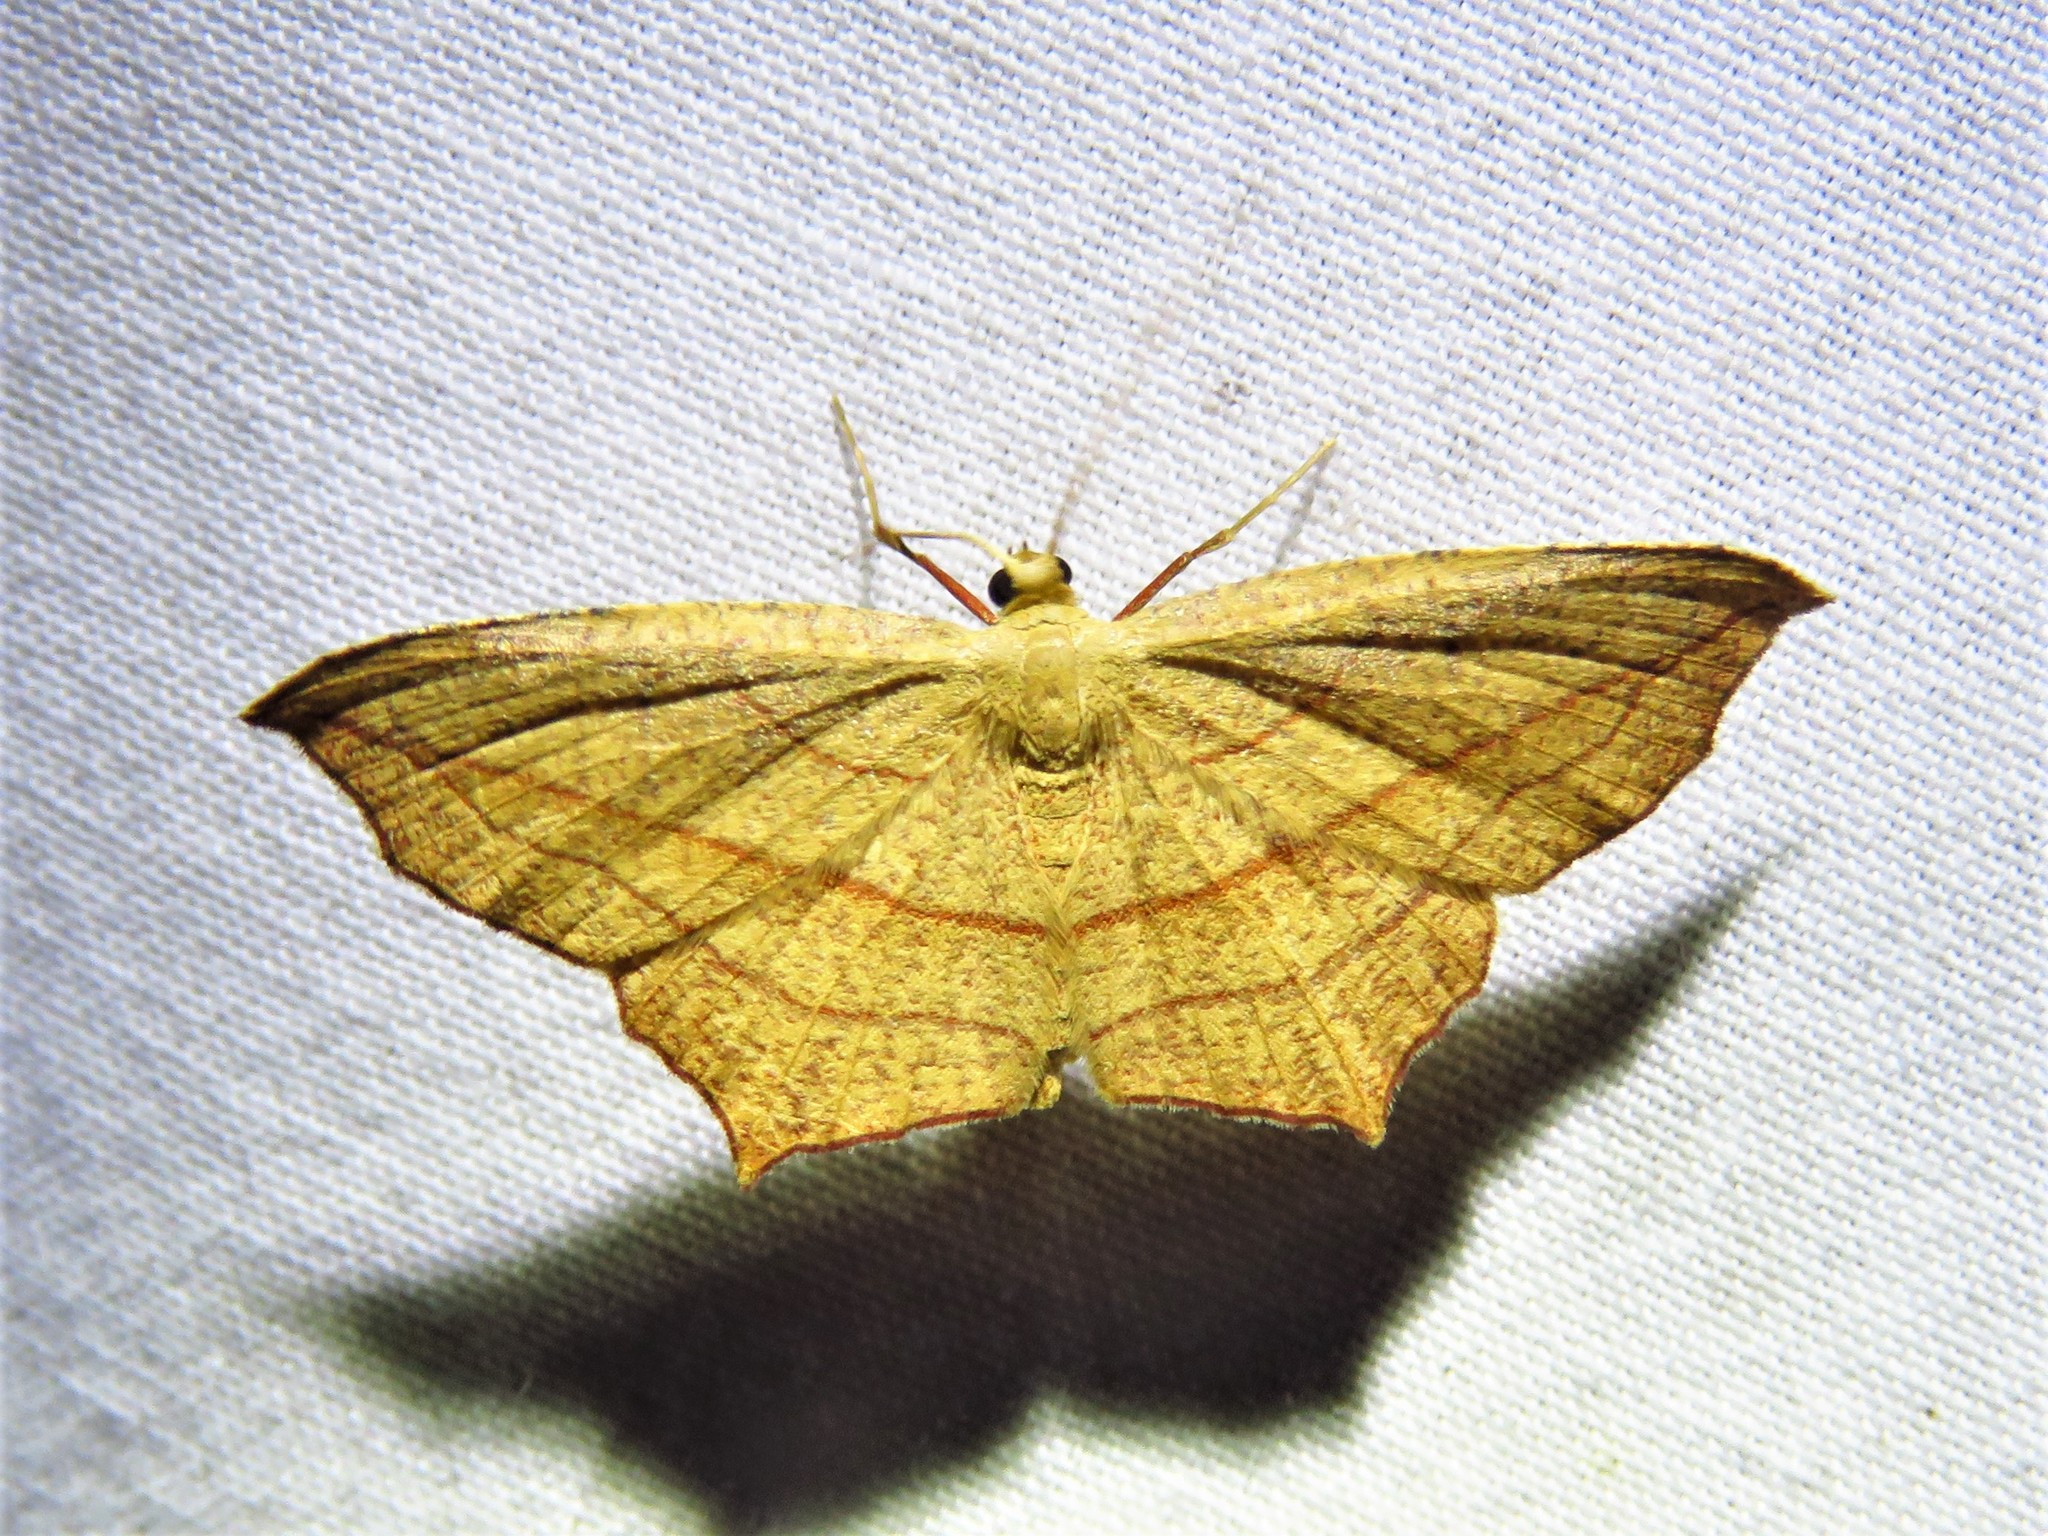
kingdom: Animalia
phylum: Arthropoda
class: Insecta
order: Lepidoptera
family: Geometridae
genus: Timandra
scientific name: Timandra amaturaria
